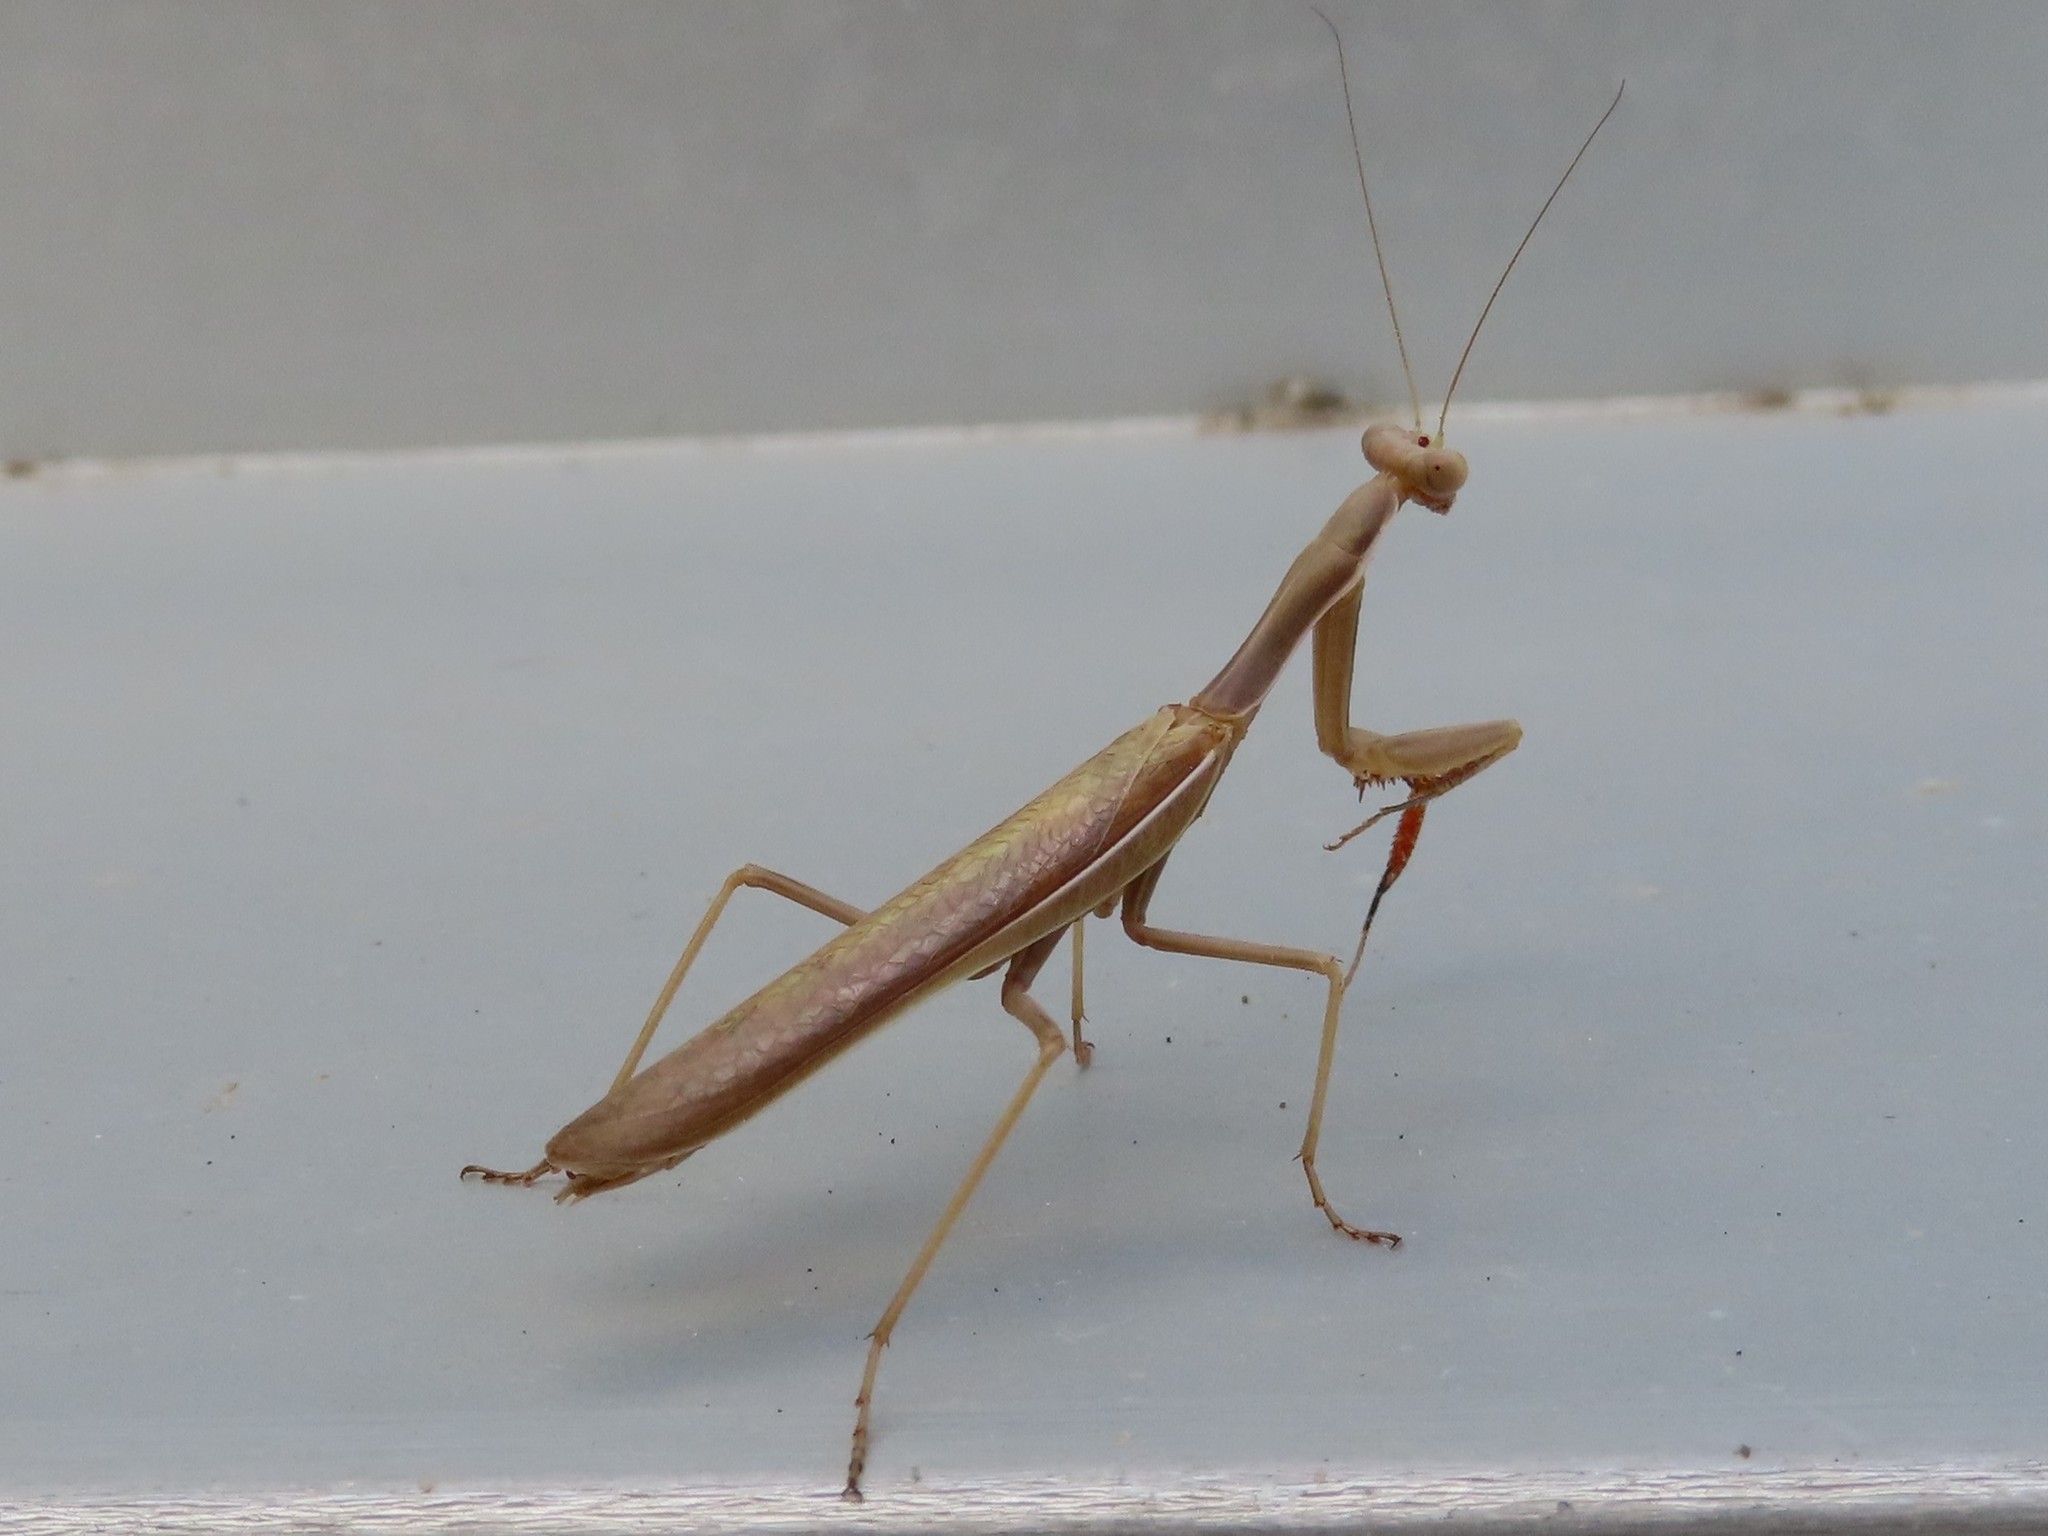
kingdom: Animalia
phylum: Arthropoda
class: Insecta
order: Mantodea
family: Eremiaphilidae
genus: Iris
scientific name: Iris oratoria
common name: Mediterranean mantis
